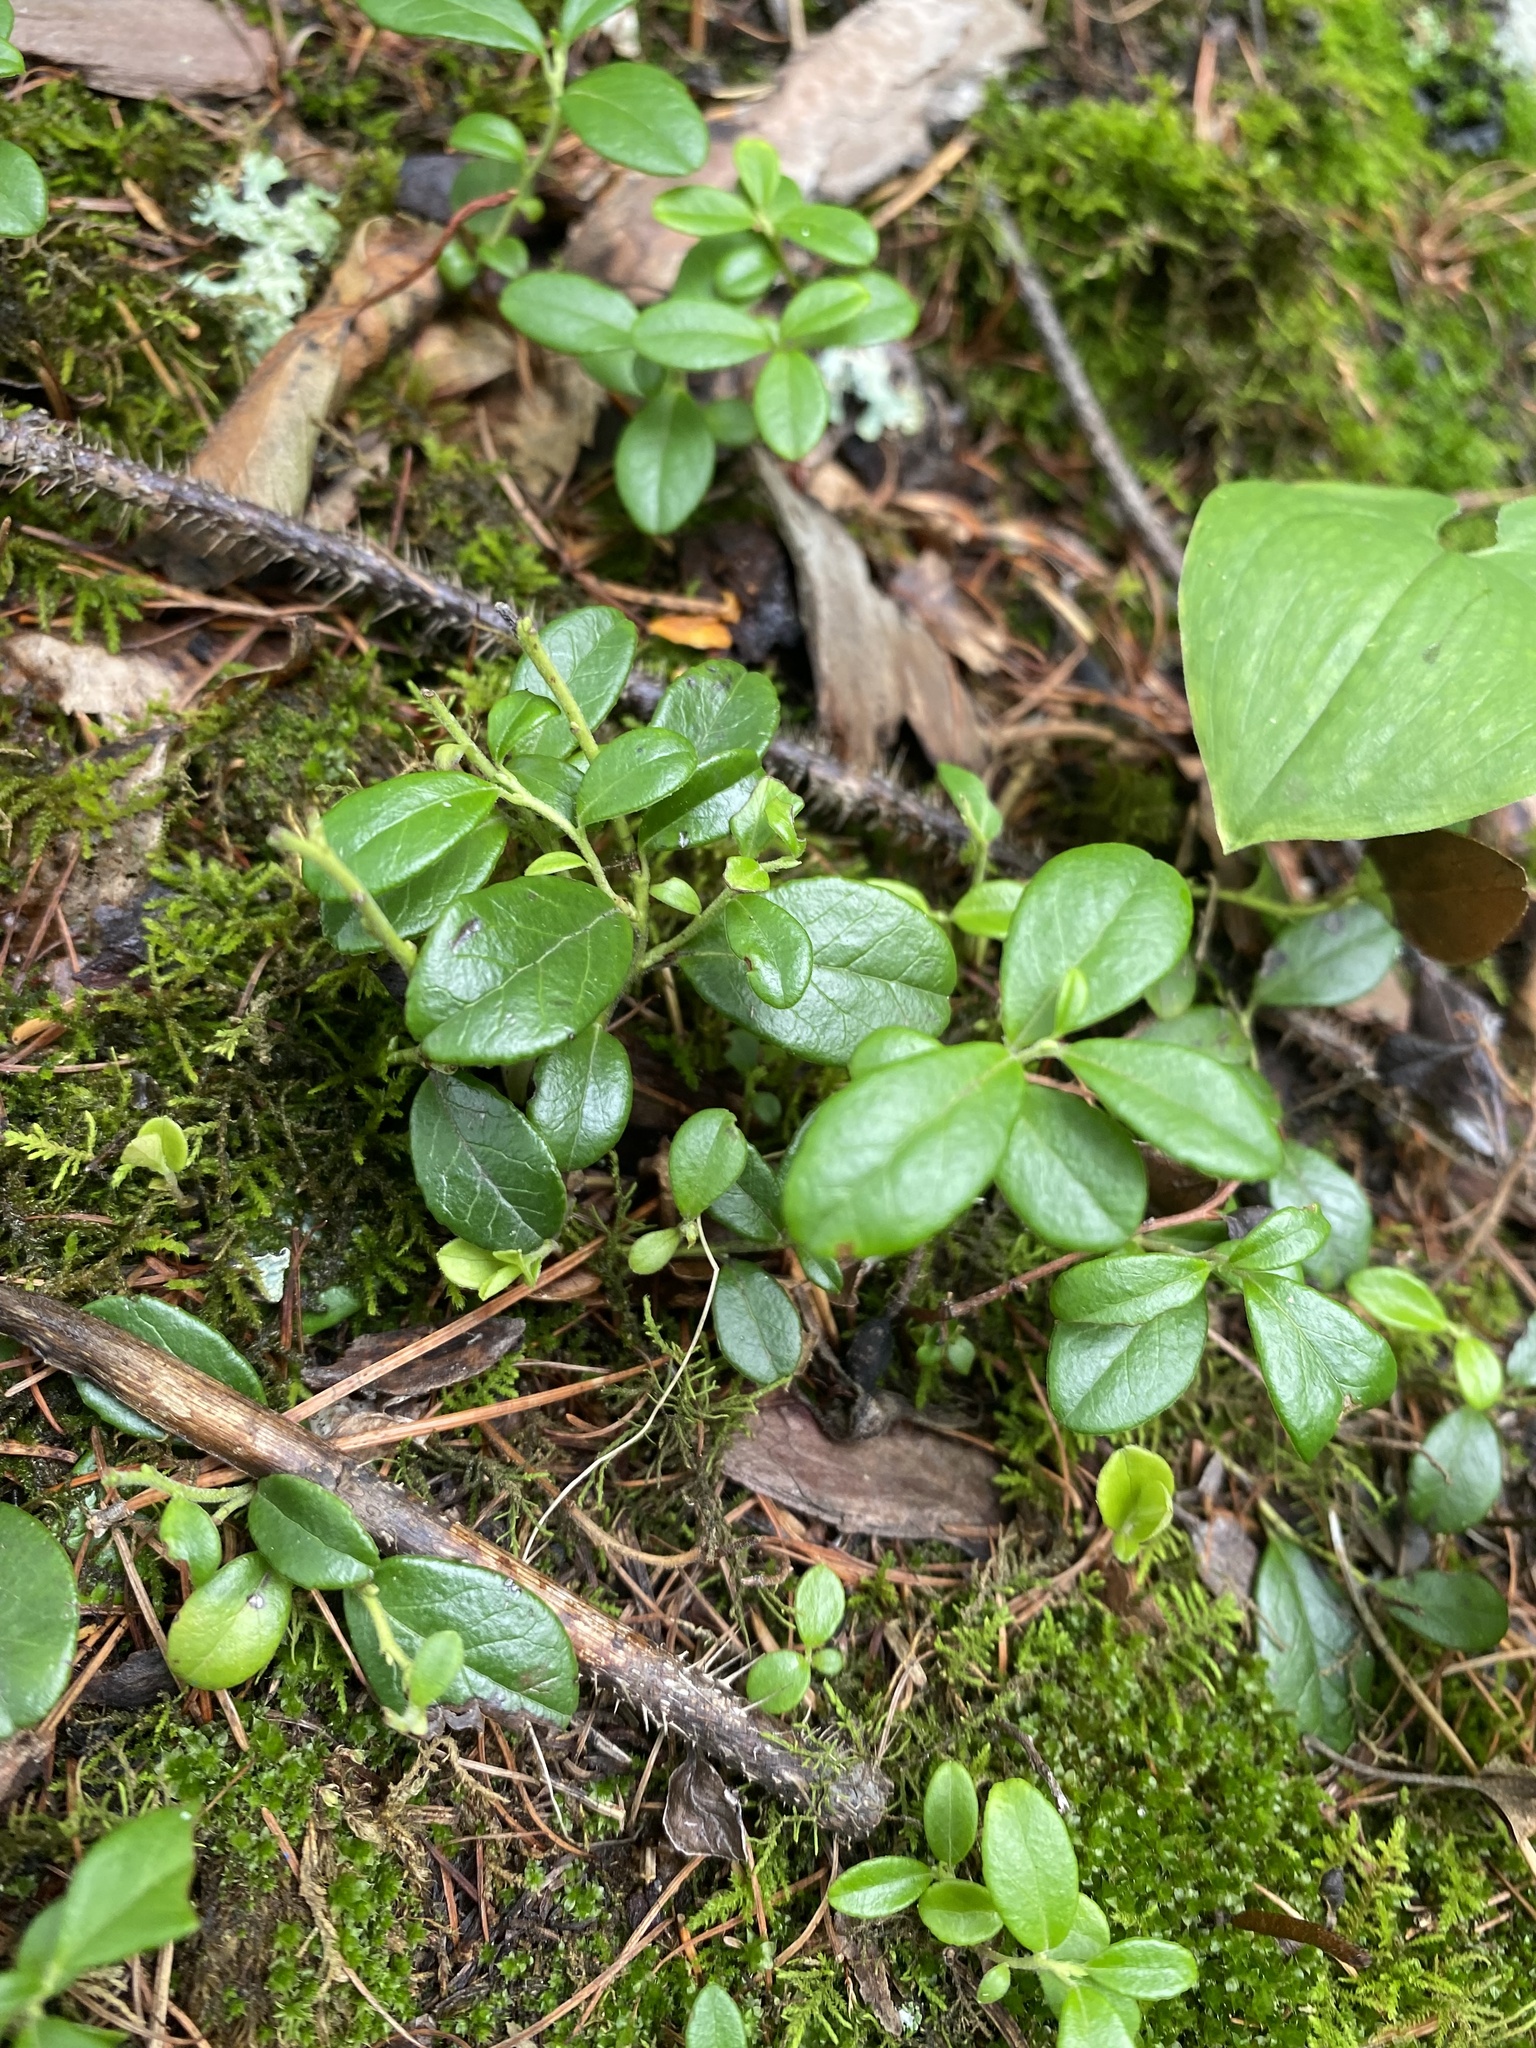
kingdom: Plantae
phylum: Tracheophyta
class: Magnoliopsida
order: Ericales
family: Ericaceae
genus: Vaccinium
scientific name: Vaccinium vitis-idaea
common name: Cowberry
